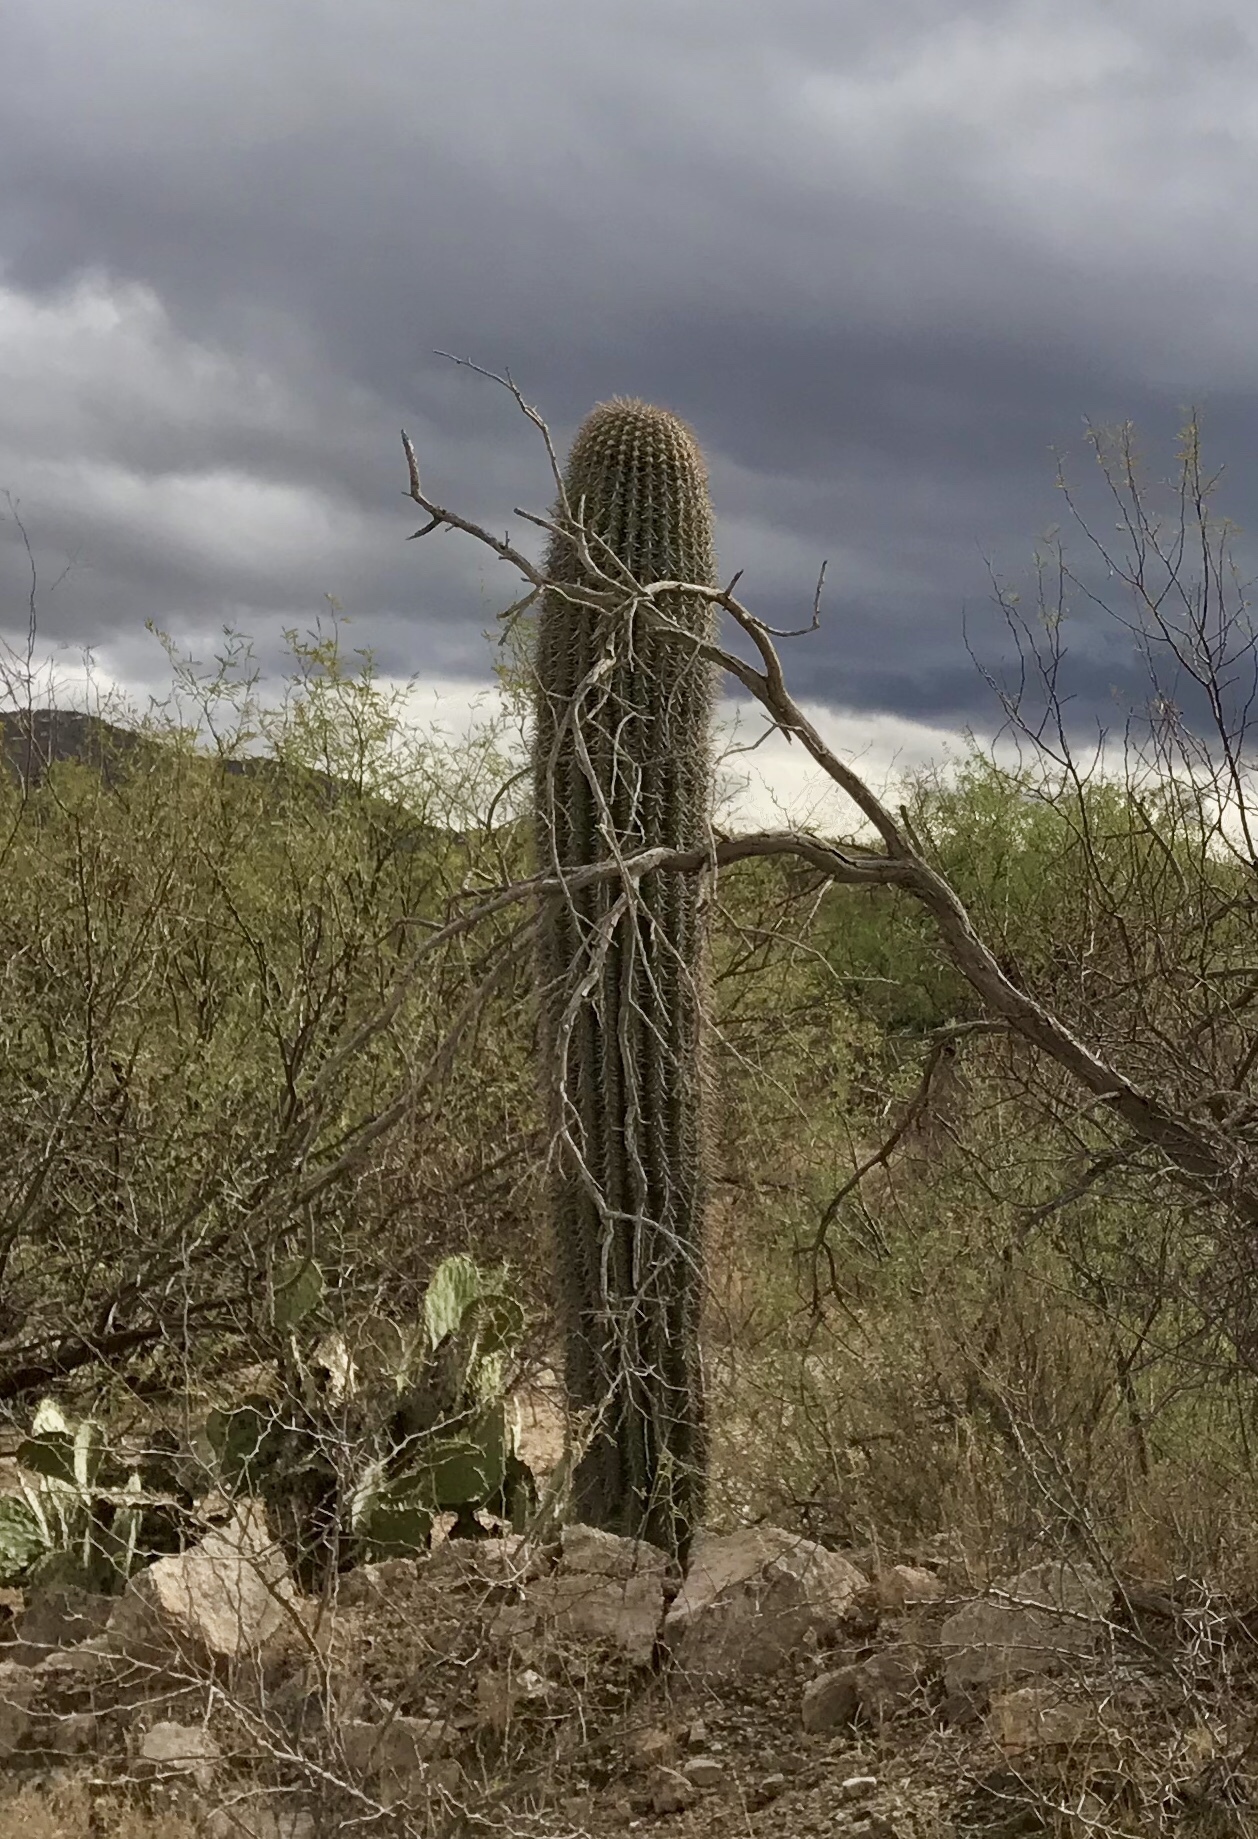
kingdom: Plantae
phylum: Tracheophyta
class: Magnoliopsida
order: Caryophyllales
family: Cactaceae
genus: Carnegiea
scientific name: Carnegiea gigantea
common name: Saguaro
